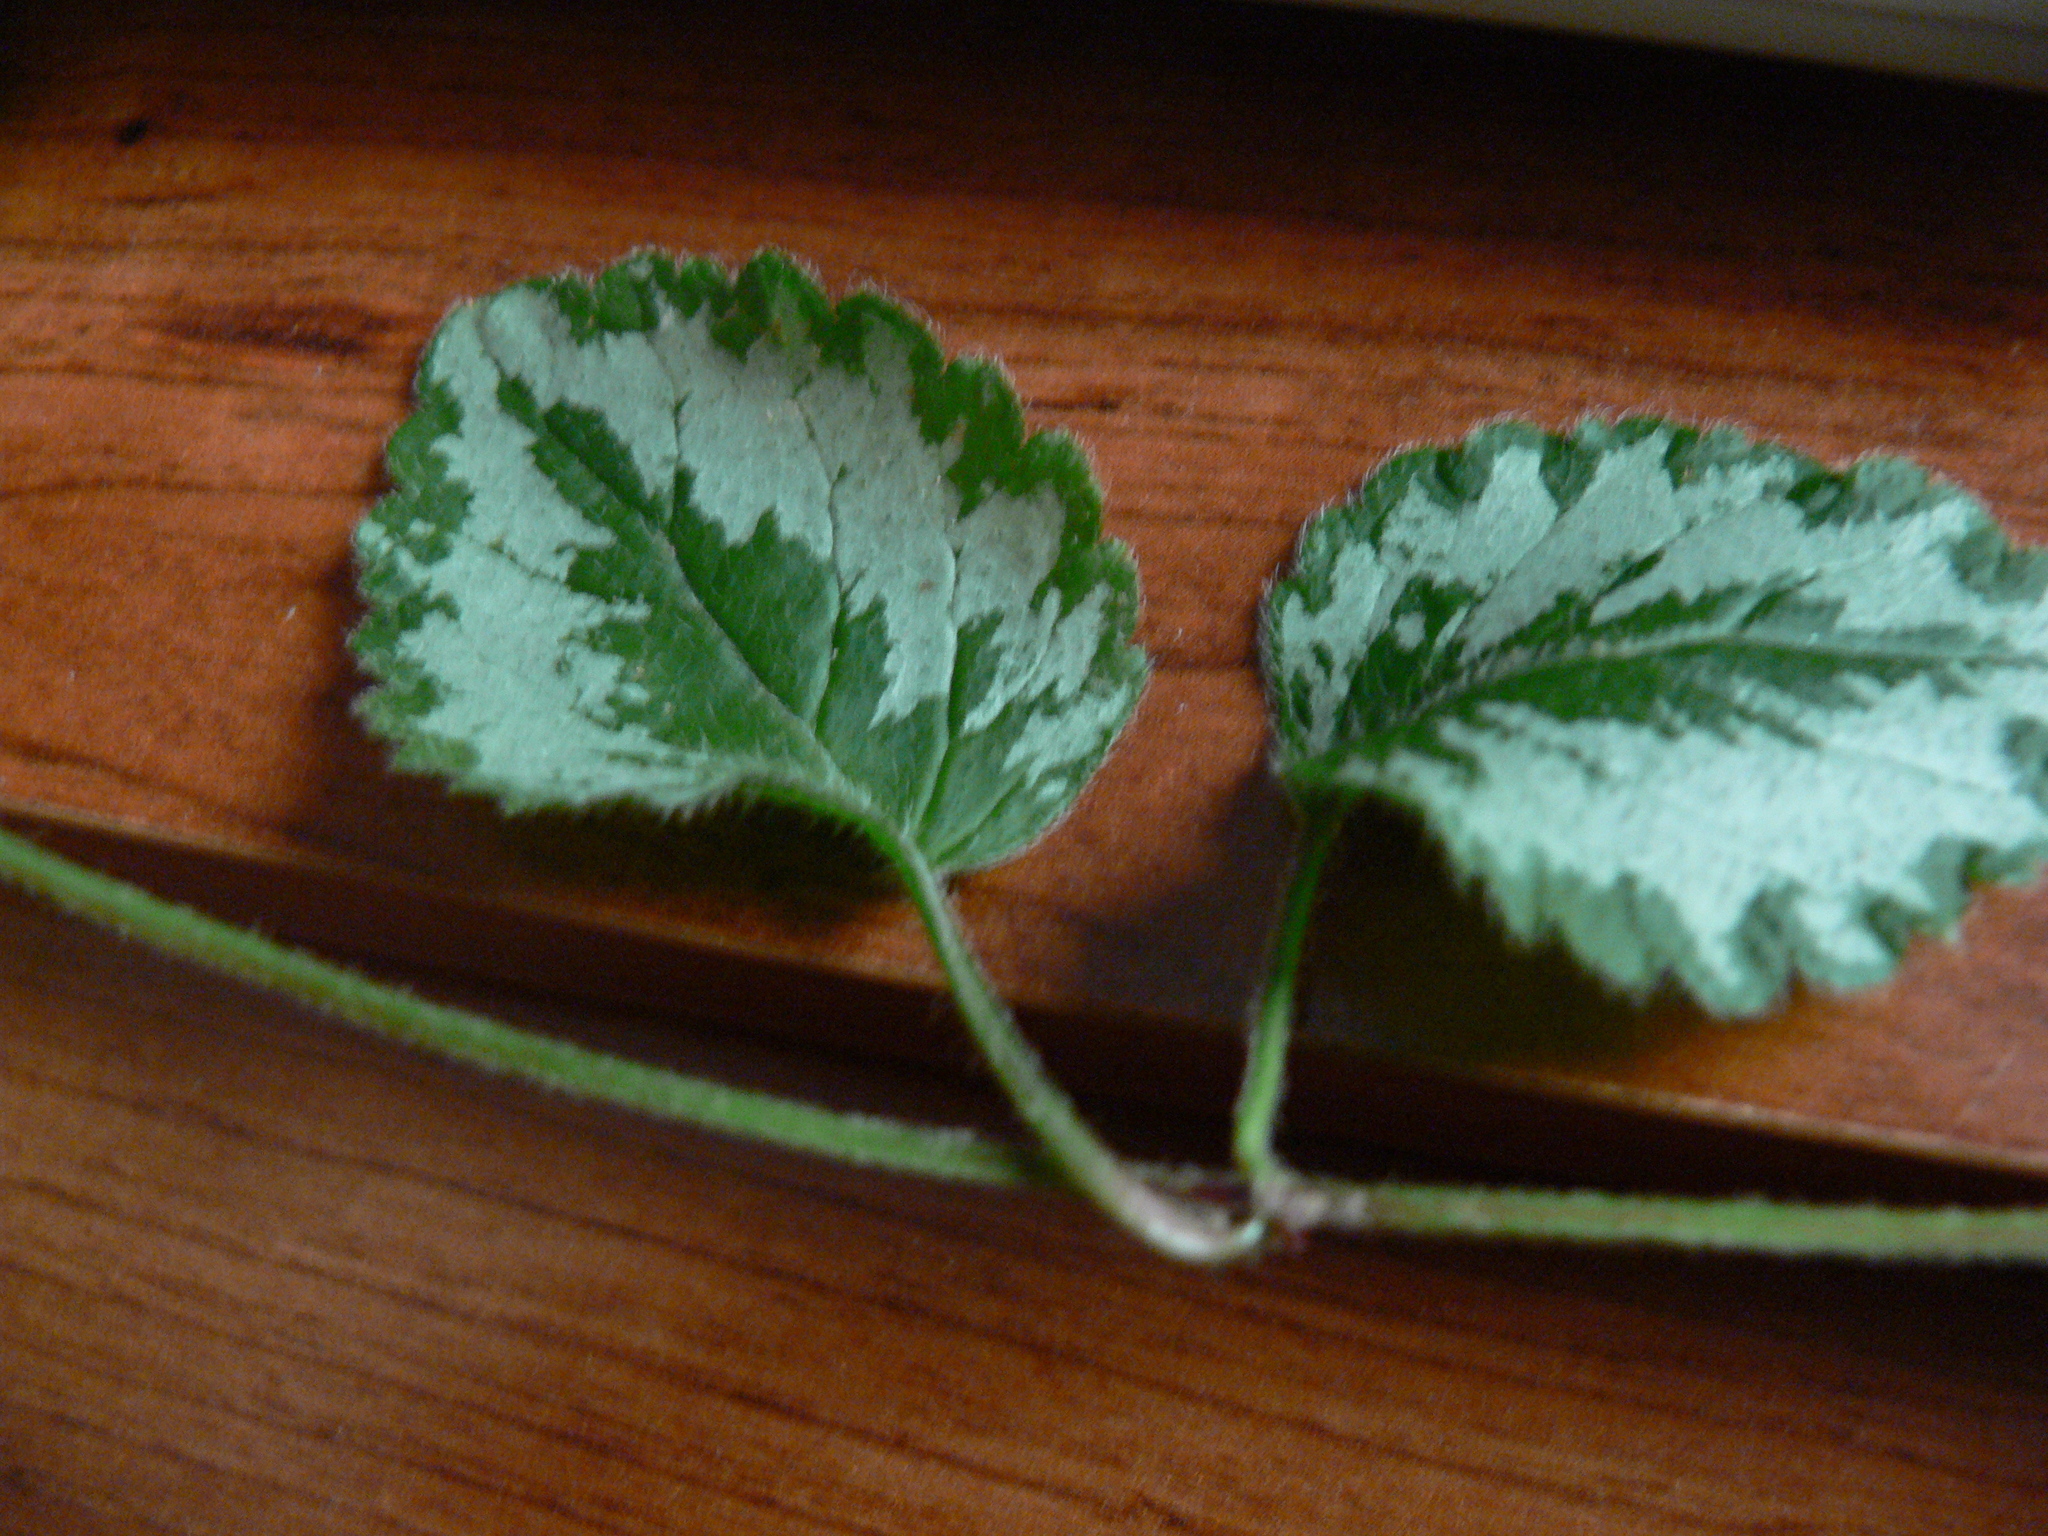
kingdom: Plantae
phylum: Tracheophyta
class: Magnoliopsida
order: Lamiales
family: Lamiaceae
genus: Lamium
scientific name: Lamium galeobdolon
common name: Yellow archangel
